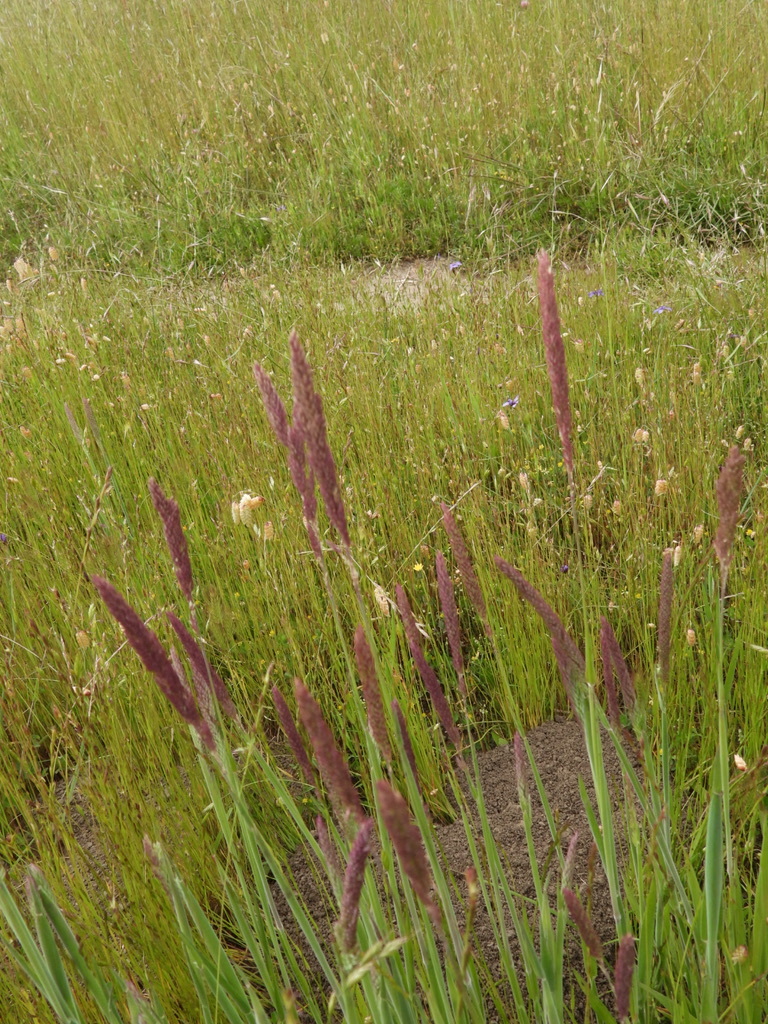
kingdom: Plantae
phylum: Tracheophyta
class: Liliopsida
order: Poales
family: Poaceae
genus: Holcus
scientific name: Holcus lanatus
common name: Yorkshire-fog
